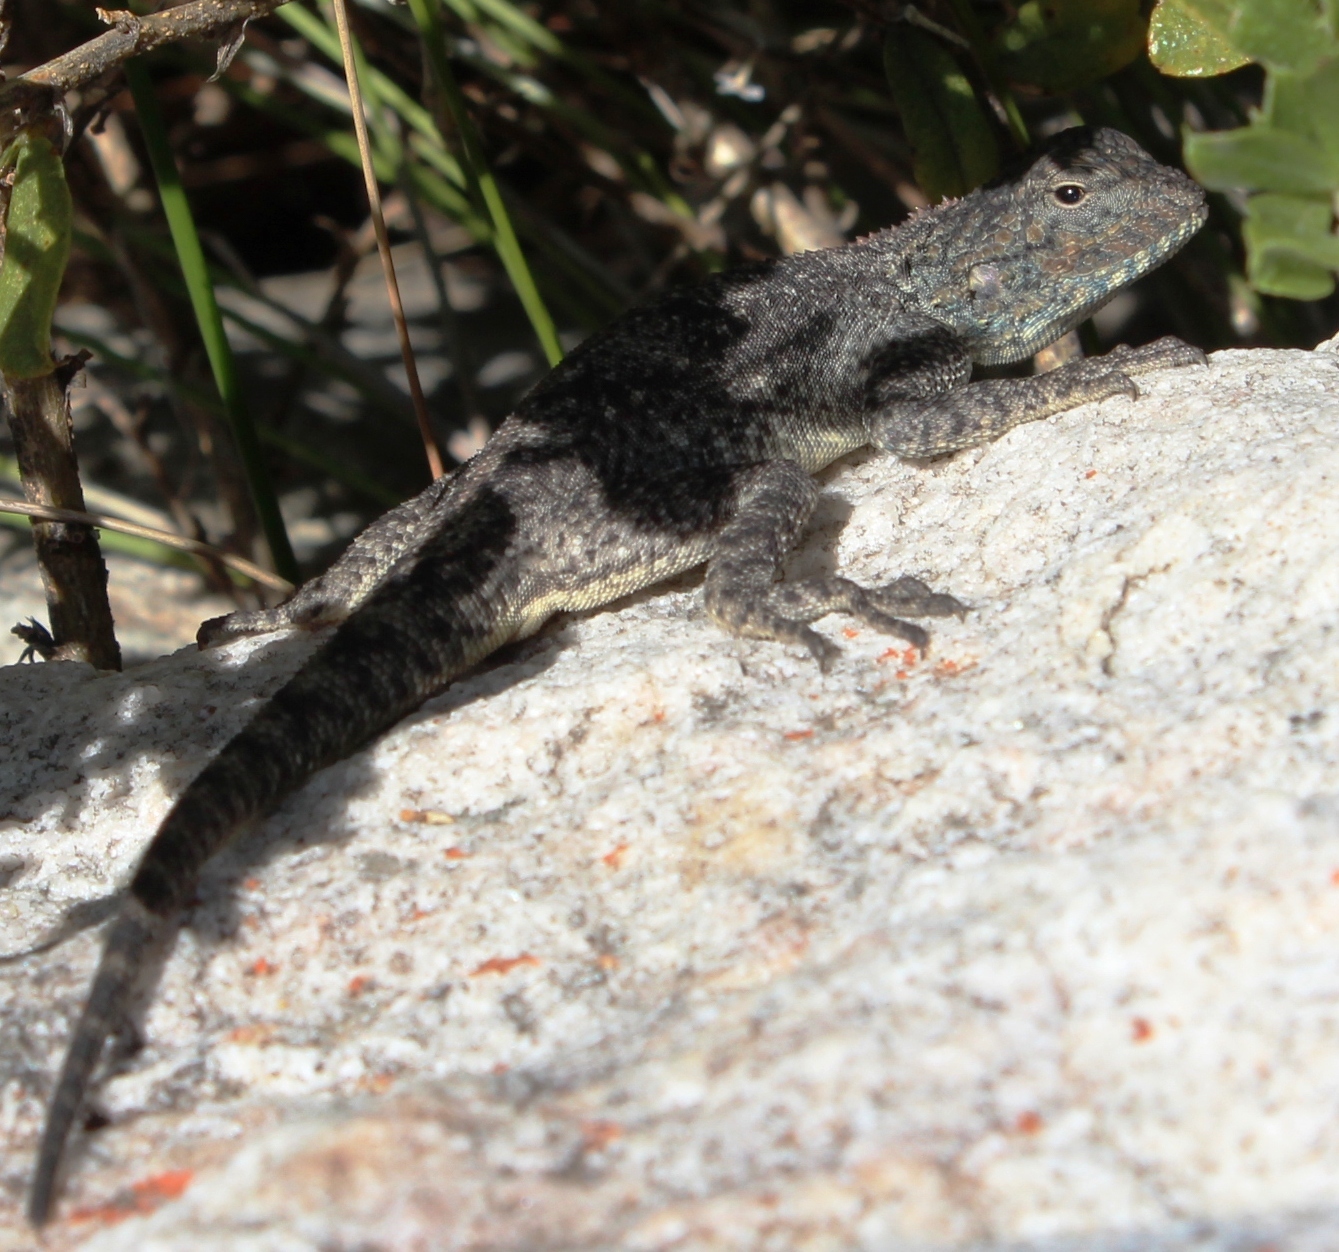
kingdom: Animalia
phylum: Chordata
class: Squamata
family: Agamidae
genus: Agama
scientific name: Agama atra
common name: Southern african rock agama
